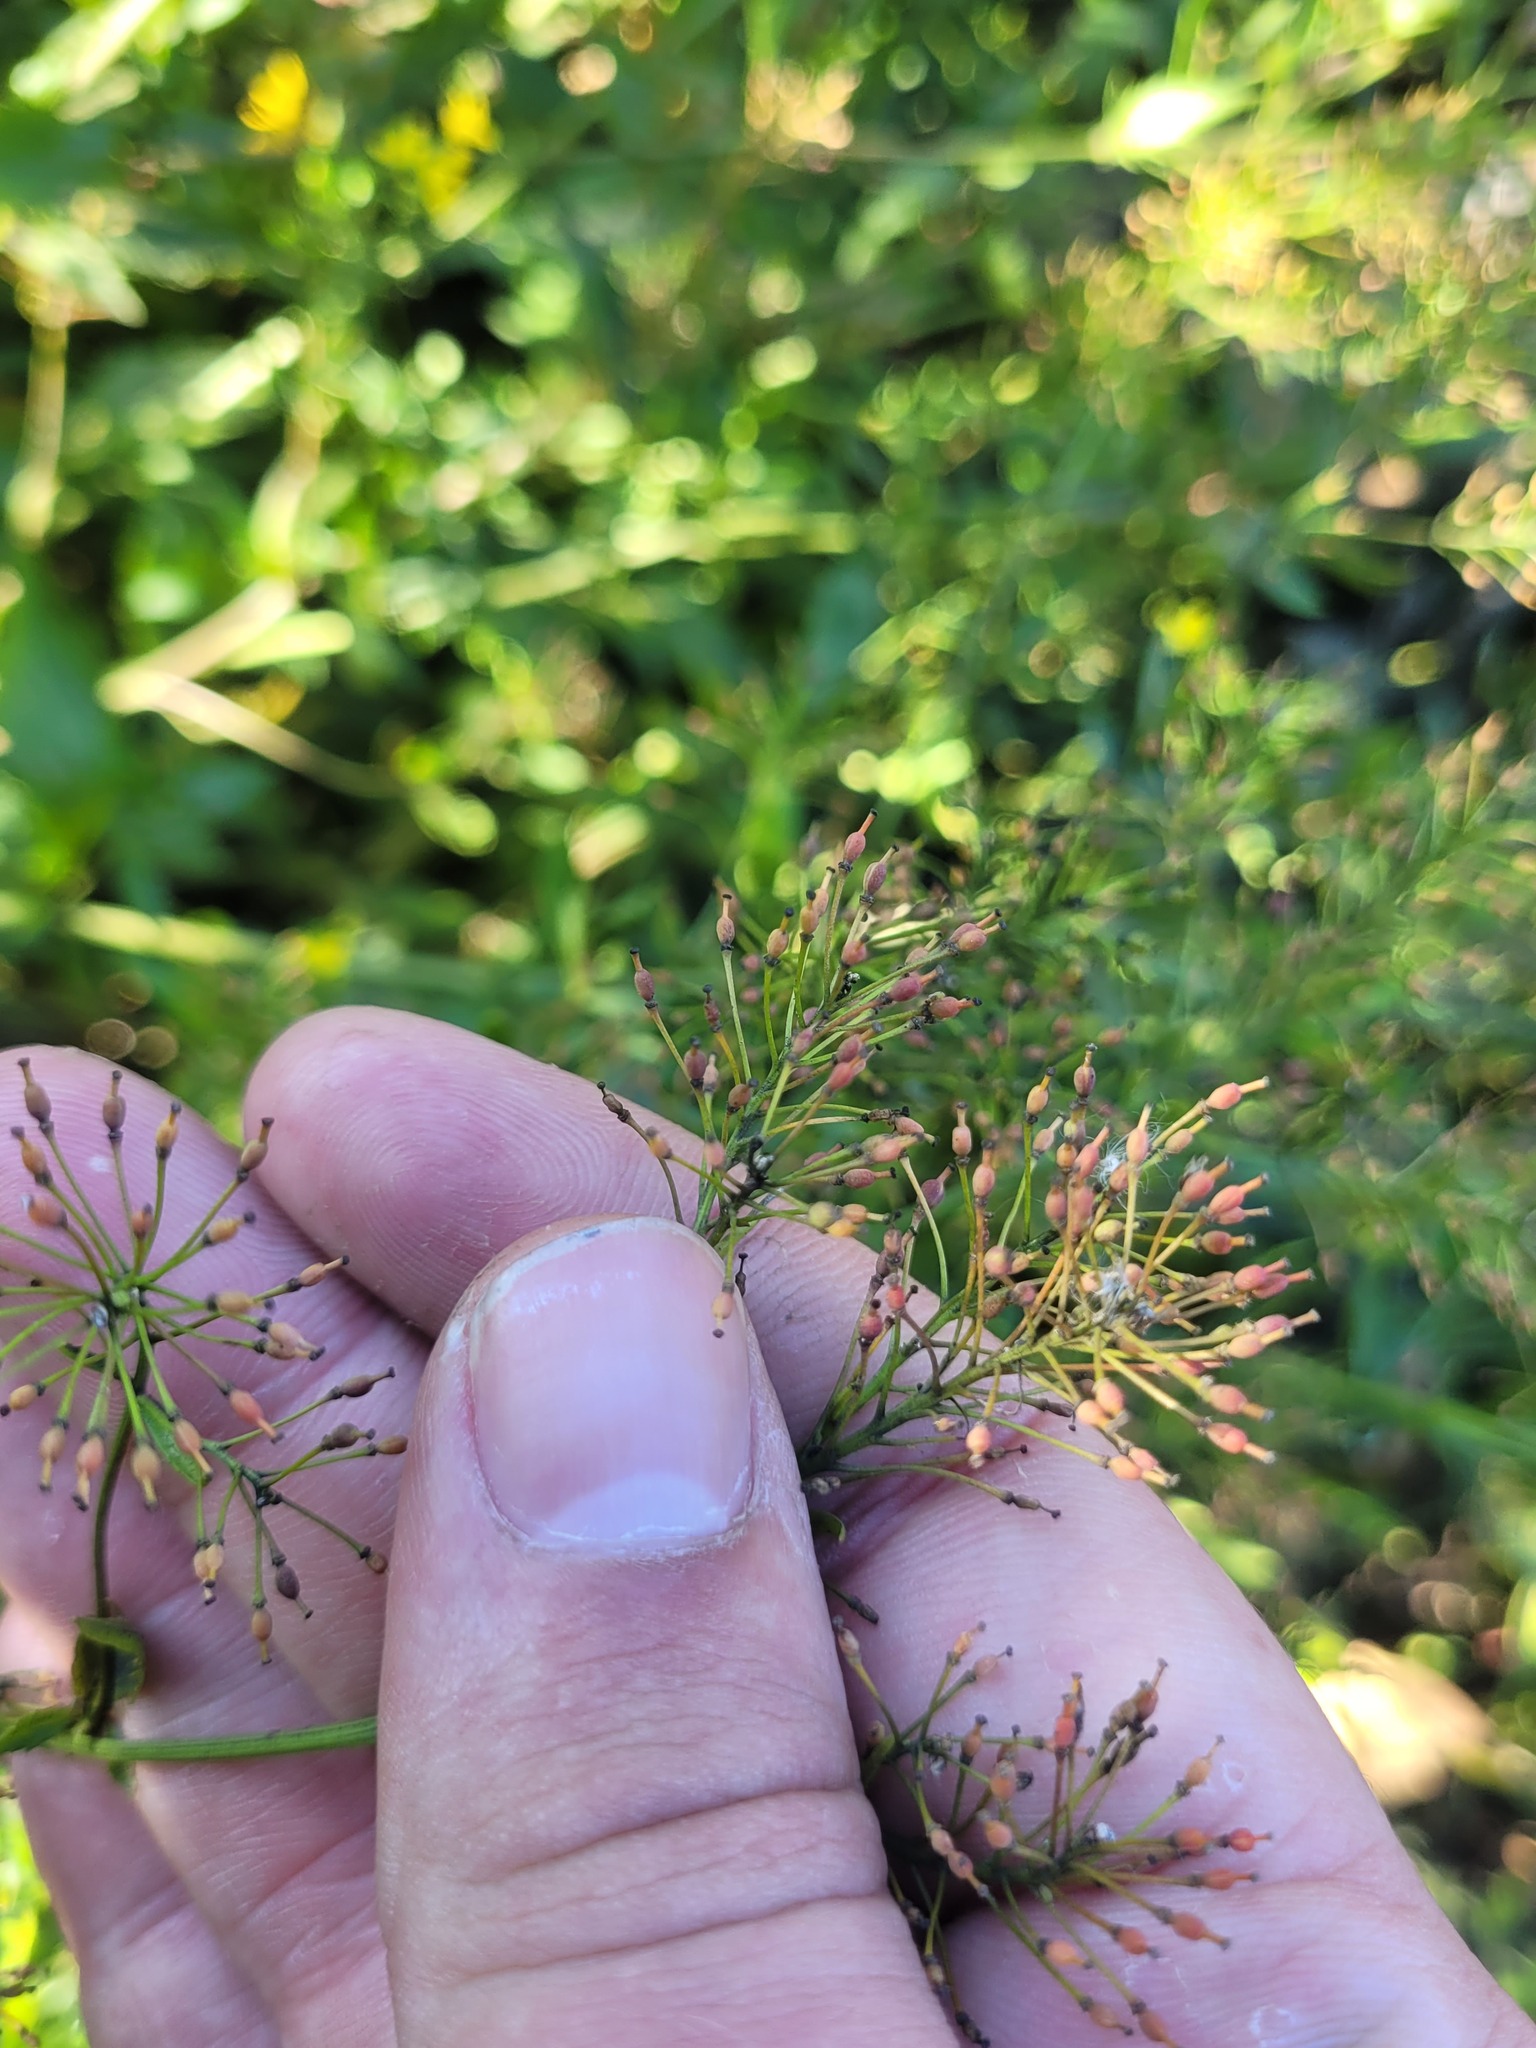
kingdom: Plantae
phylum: Tracheophyta
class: Magnoliopsida
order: Brassicales
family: Brassicaceae
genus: Rorippa
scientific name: Rorippa anceps
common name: Rorippa
